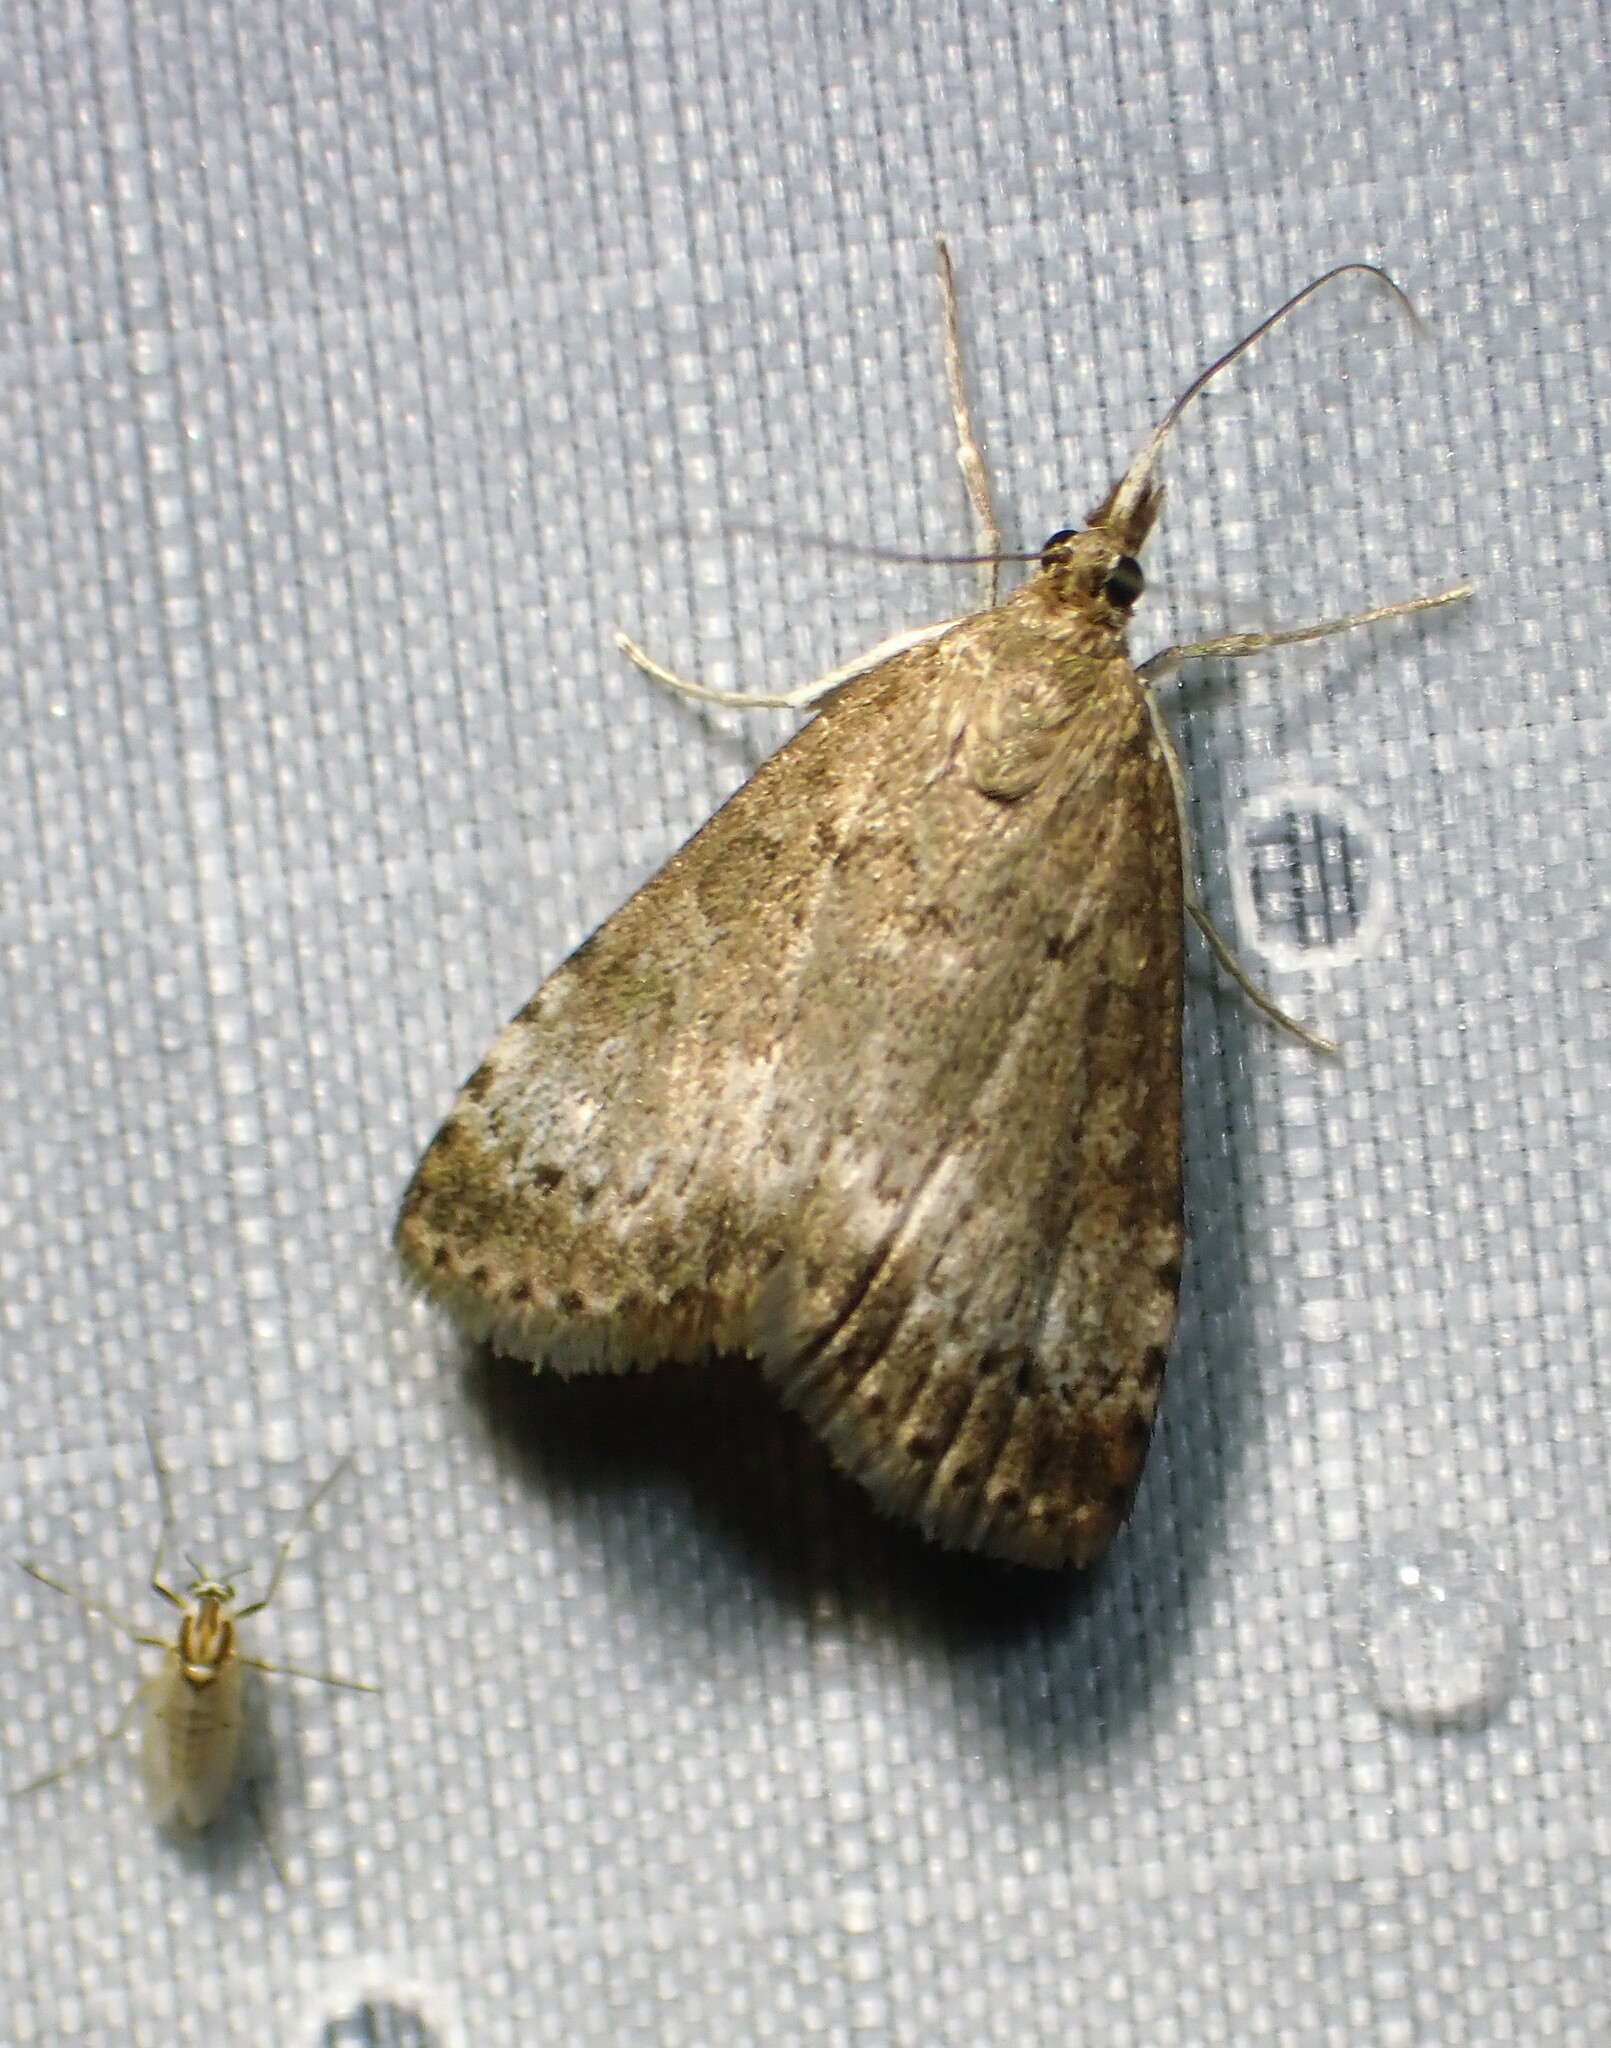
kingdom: Animalia
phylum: Arthropoda
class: Insecta
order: Lepidoptera
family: Crambidae
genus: Udea
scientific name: Udea inquinatalis
